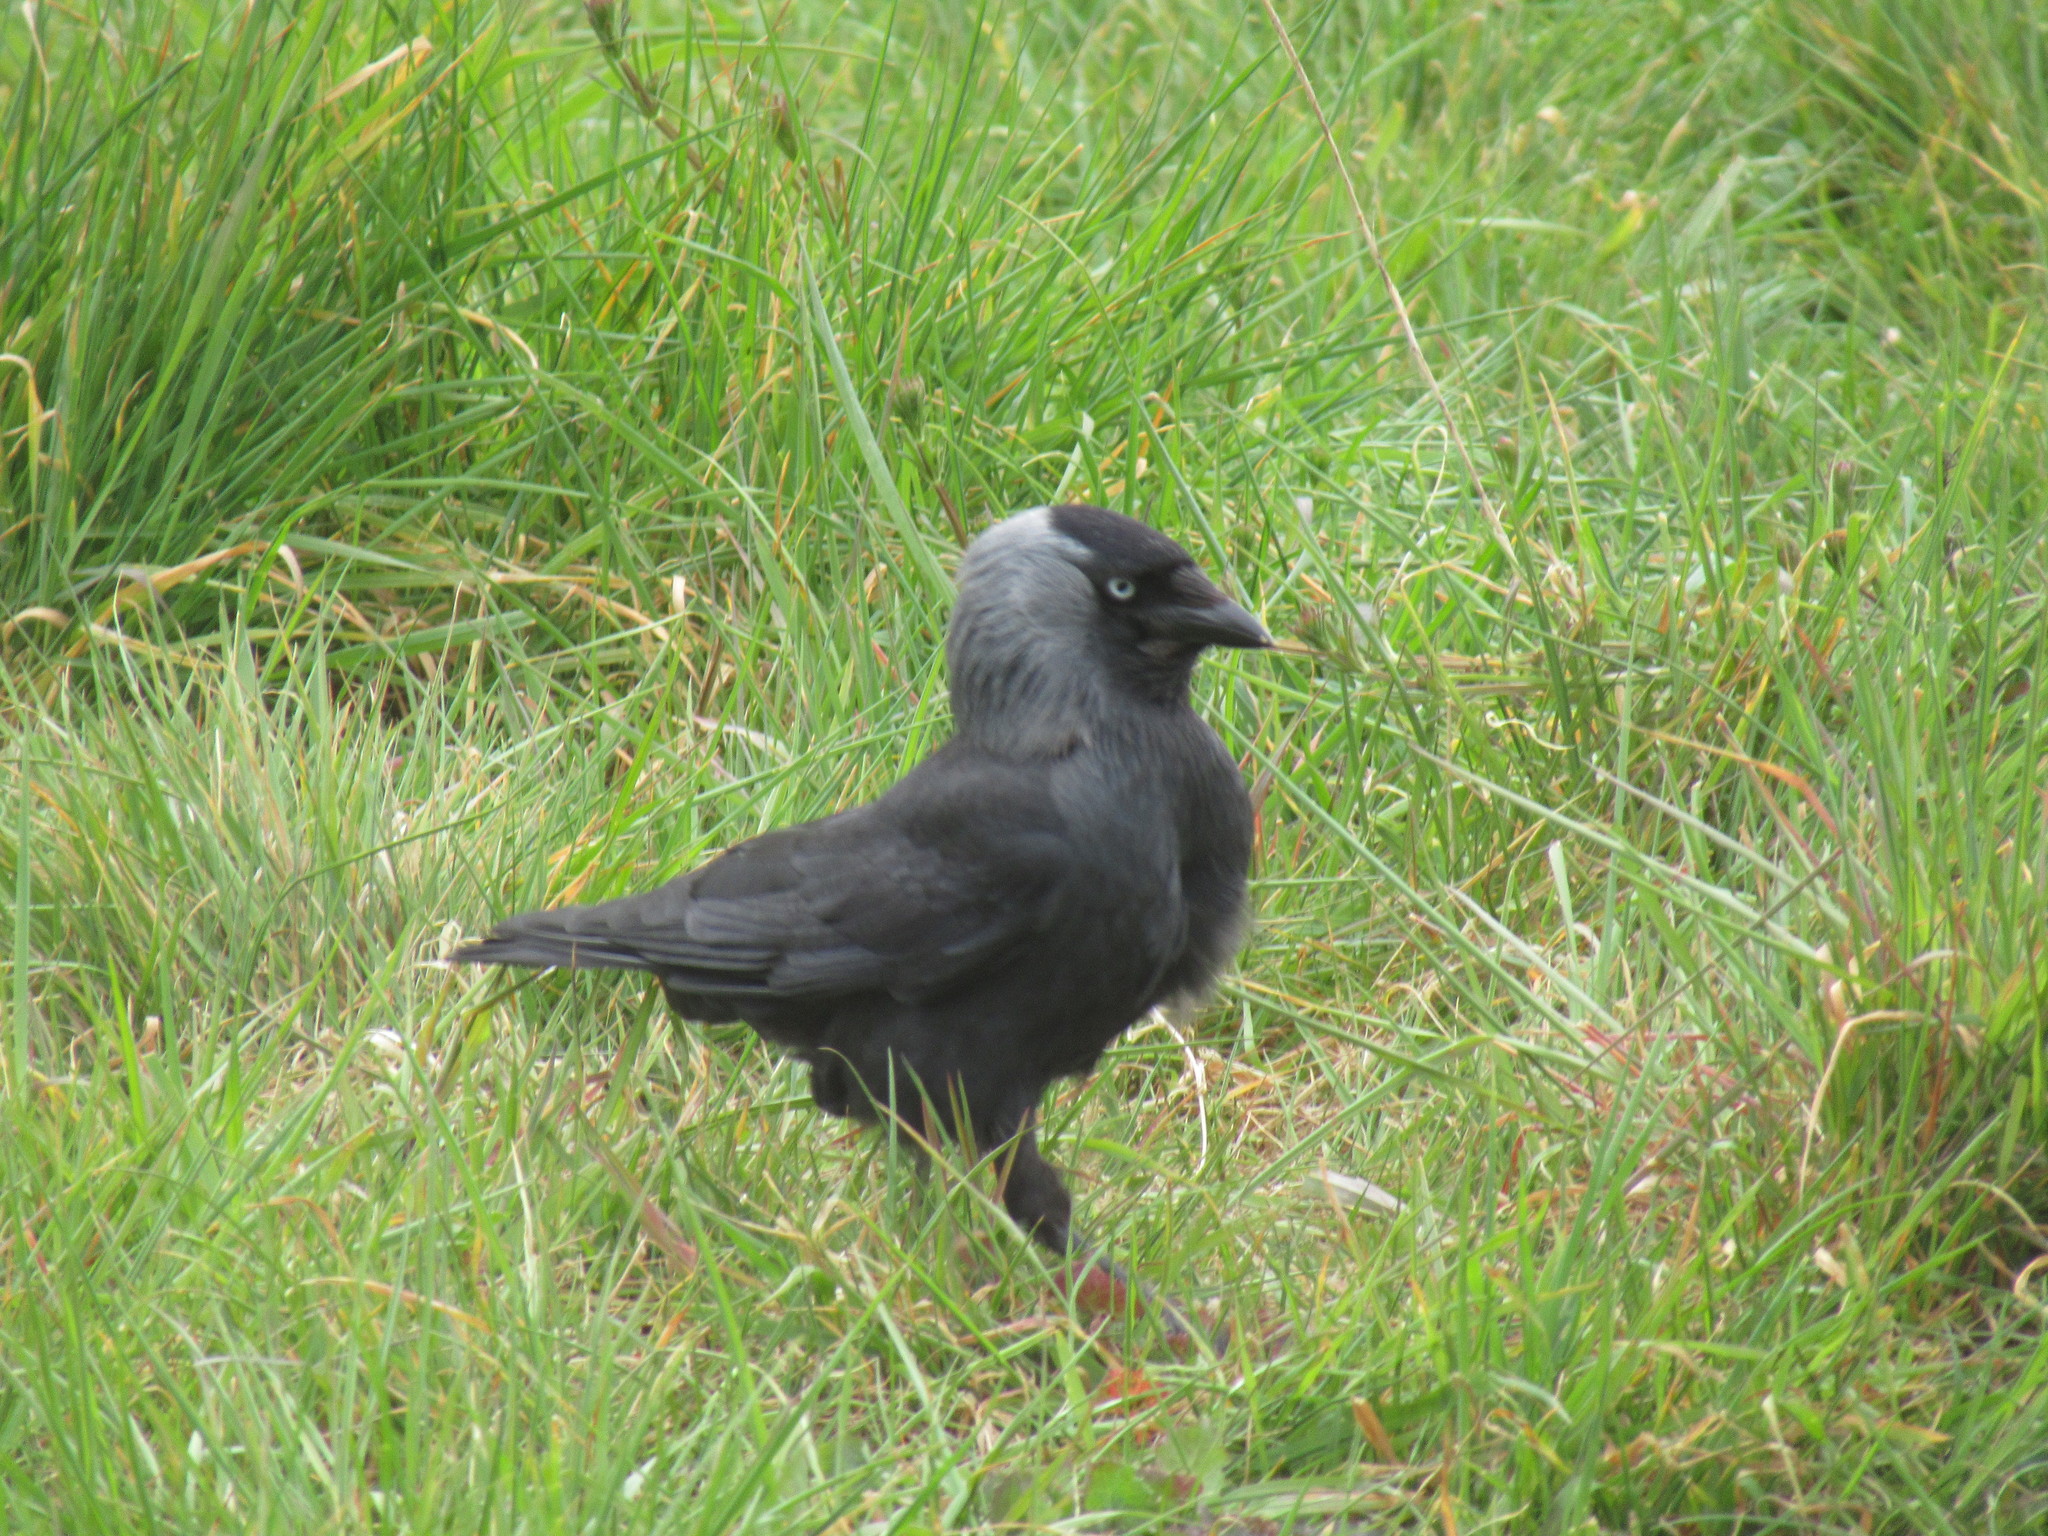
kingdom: Animalia
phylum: Chordata
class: Aves
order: Passeriformes
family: Corvidae
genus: Coloeus
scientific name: Coloeus monedula
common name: Western jackdaw
